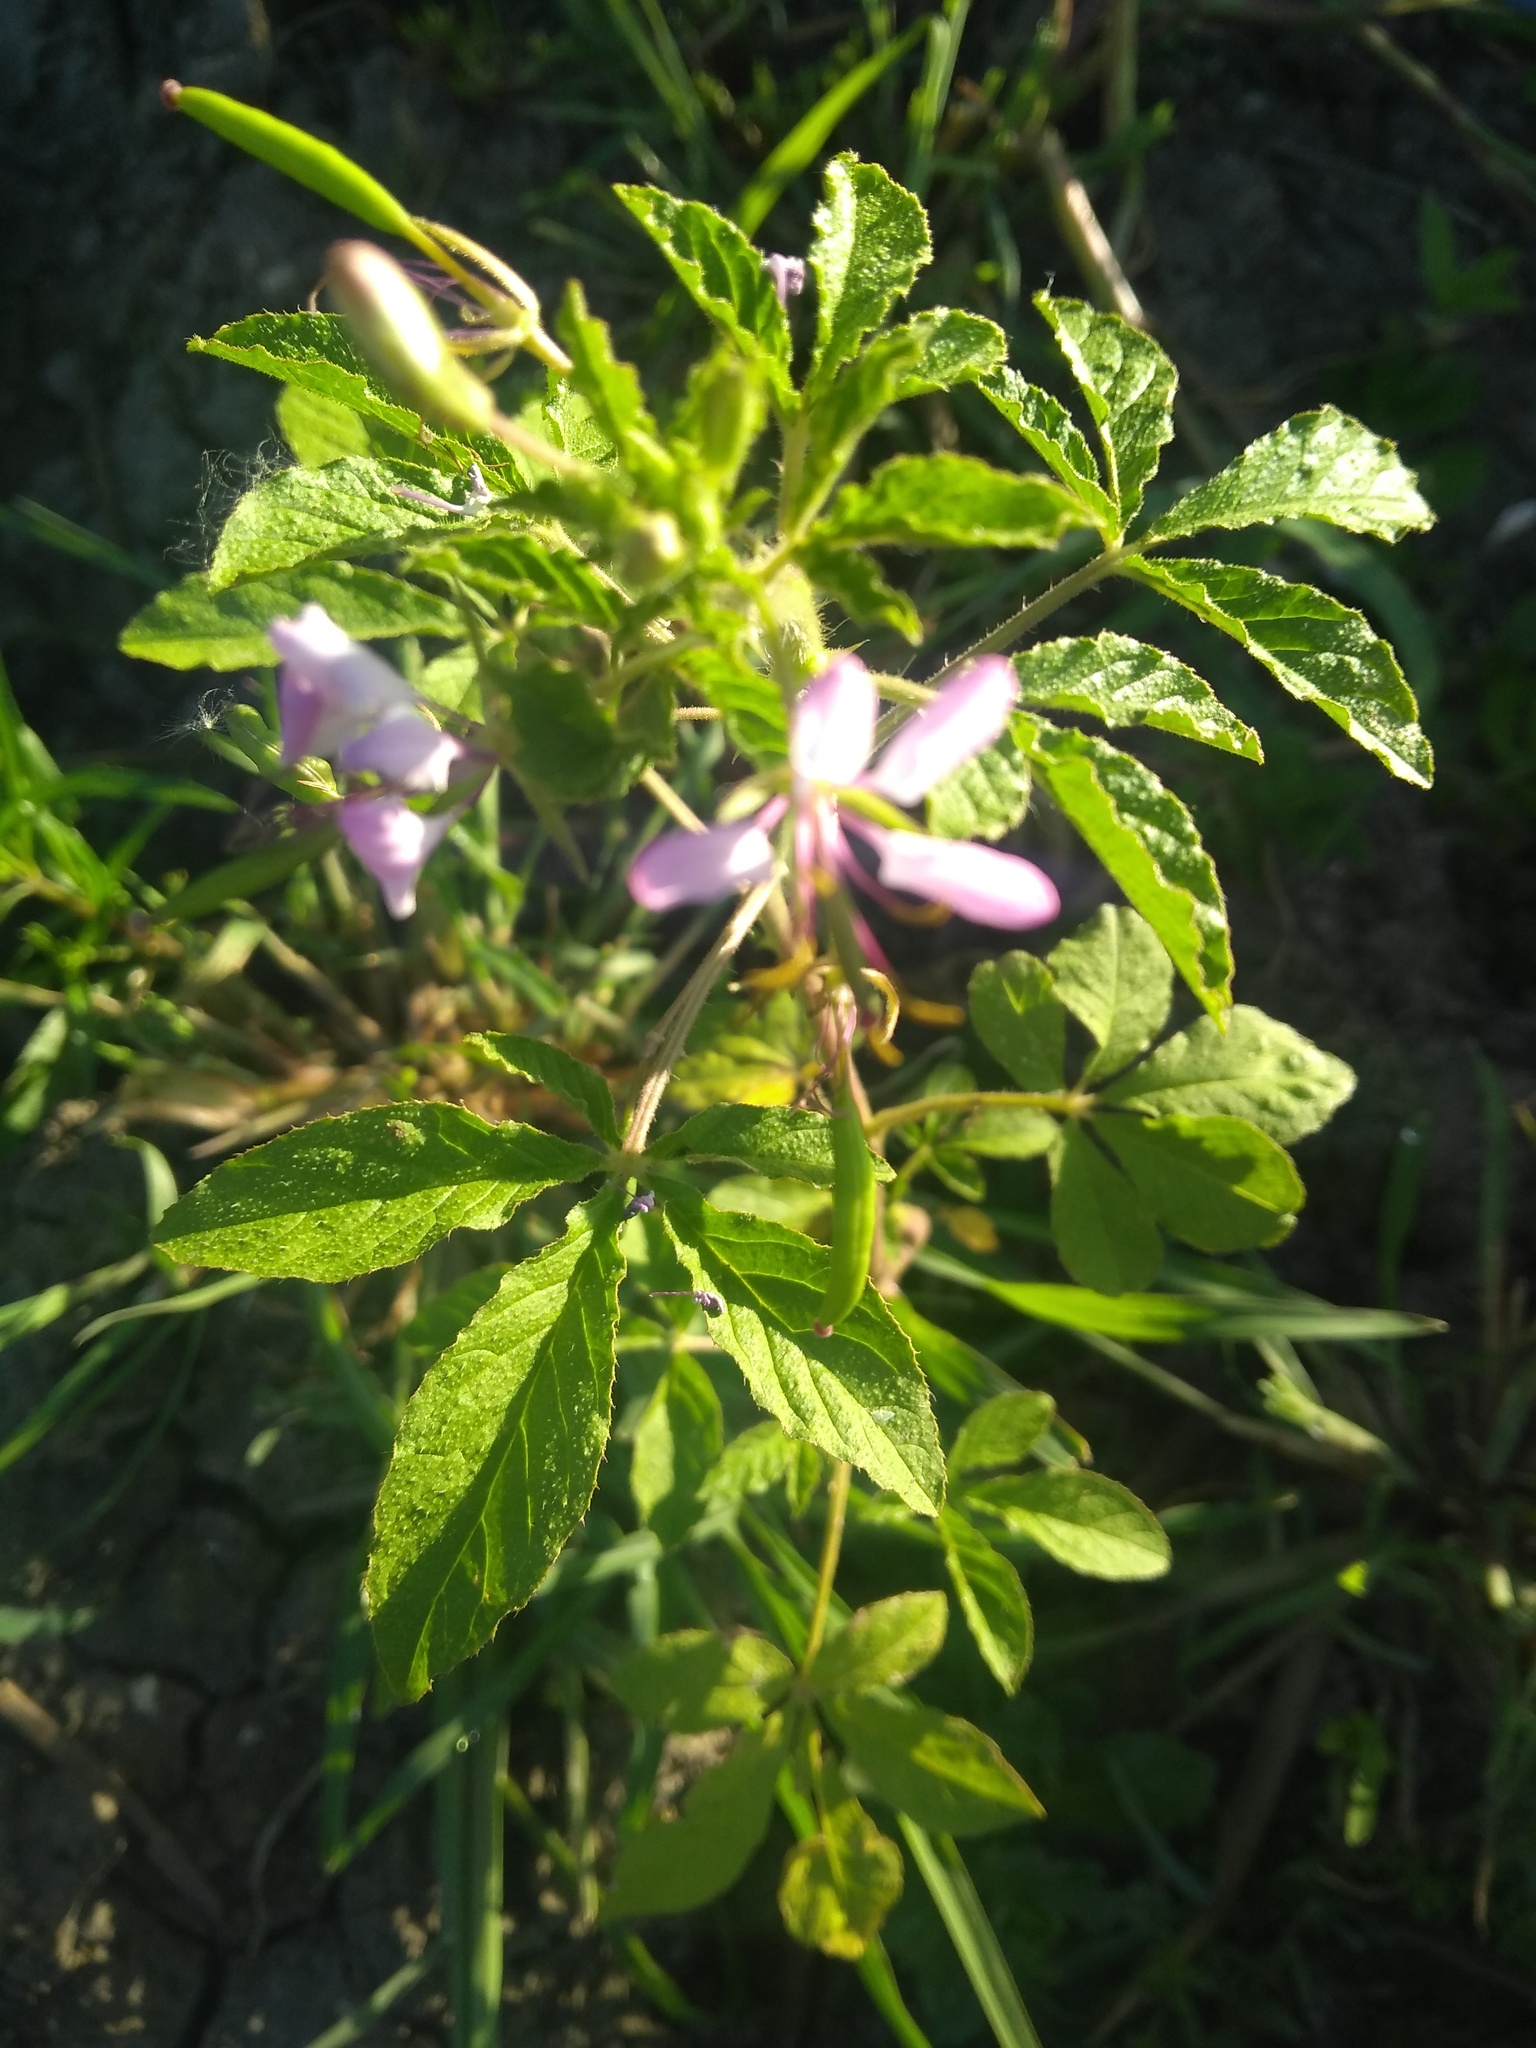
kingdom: Plantae
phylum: Tracheophyta
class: Magnoliopsida
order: Brassicales
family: Cleomaceae
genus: Tarenaya
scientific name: Tarenaya houtteana
